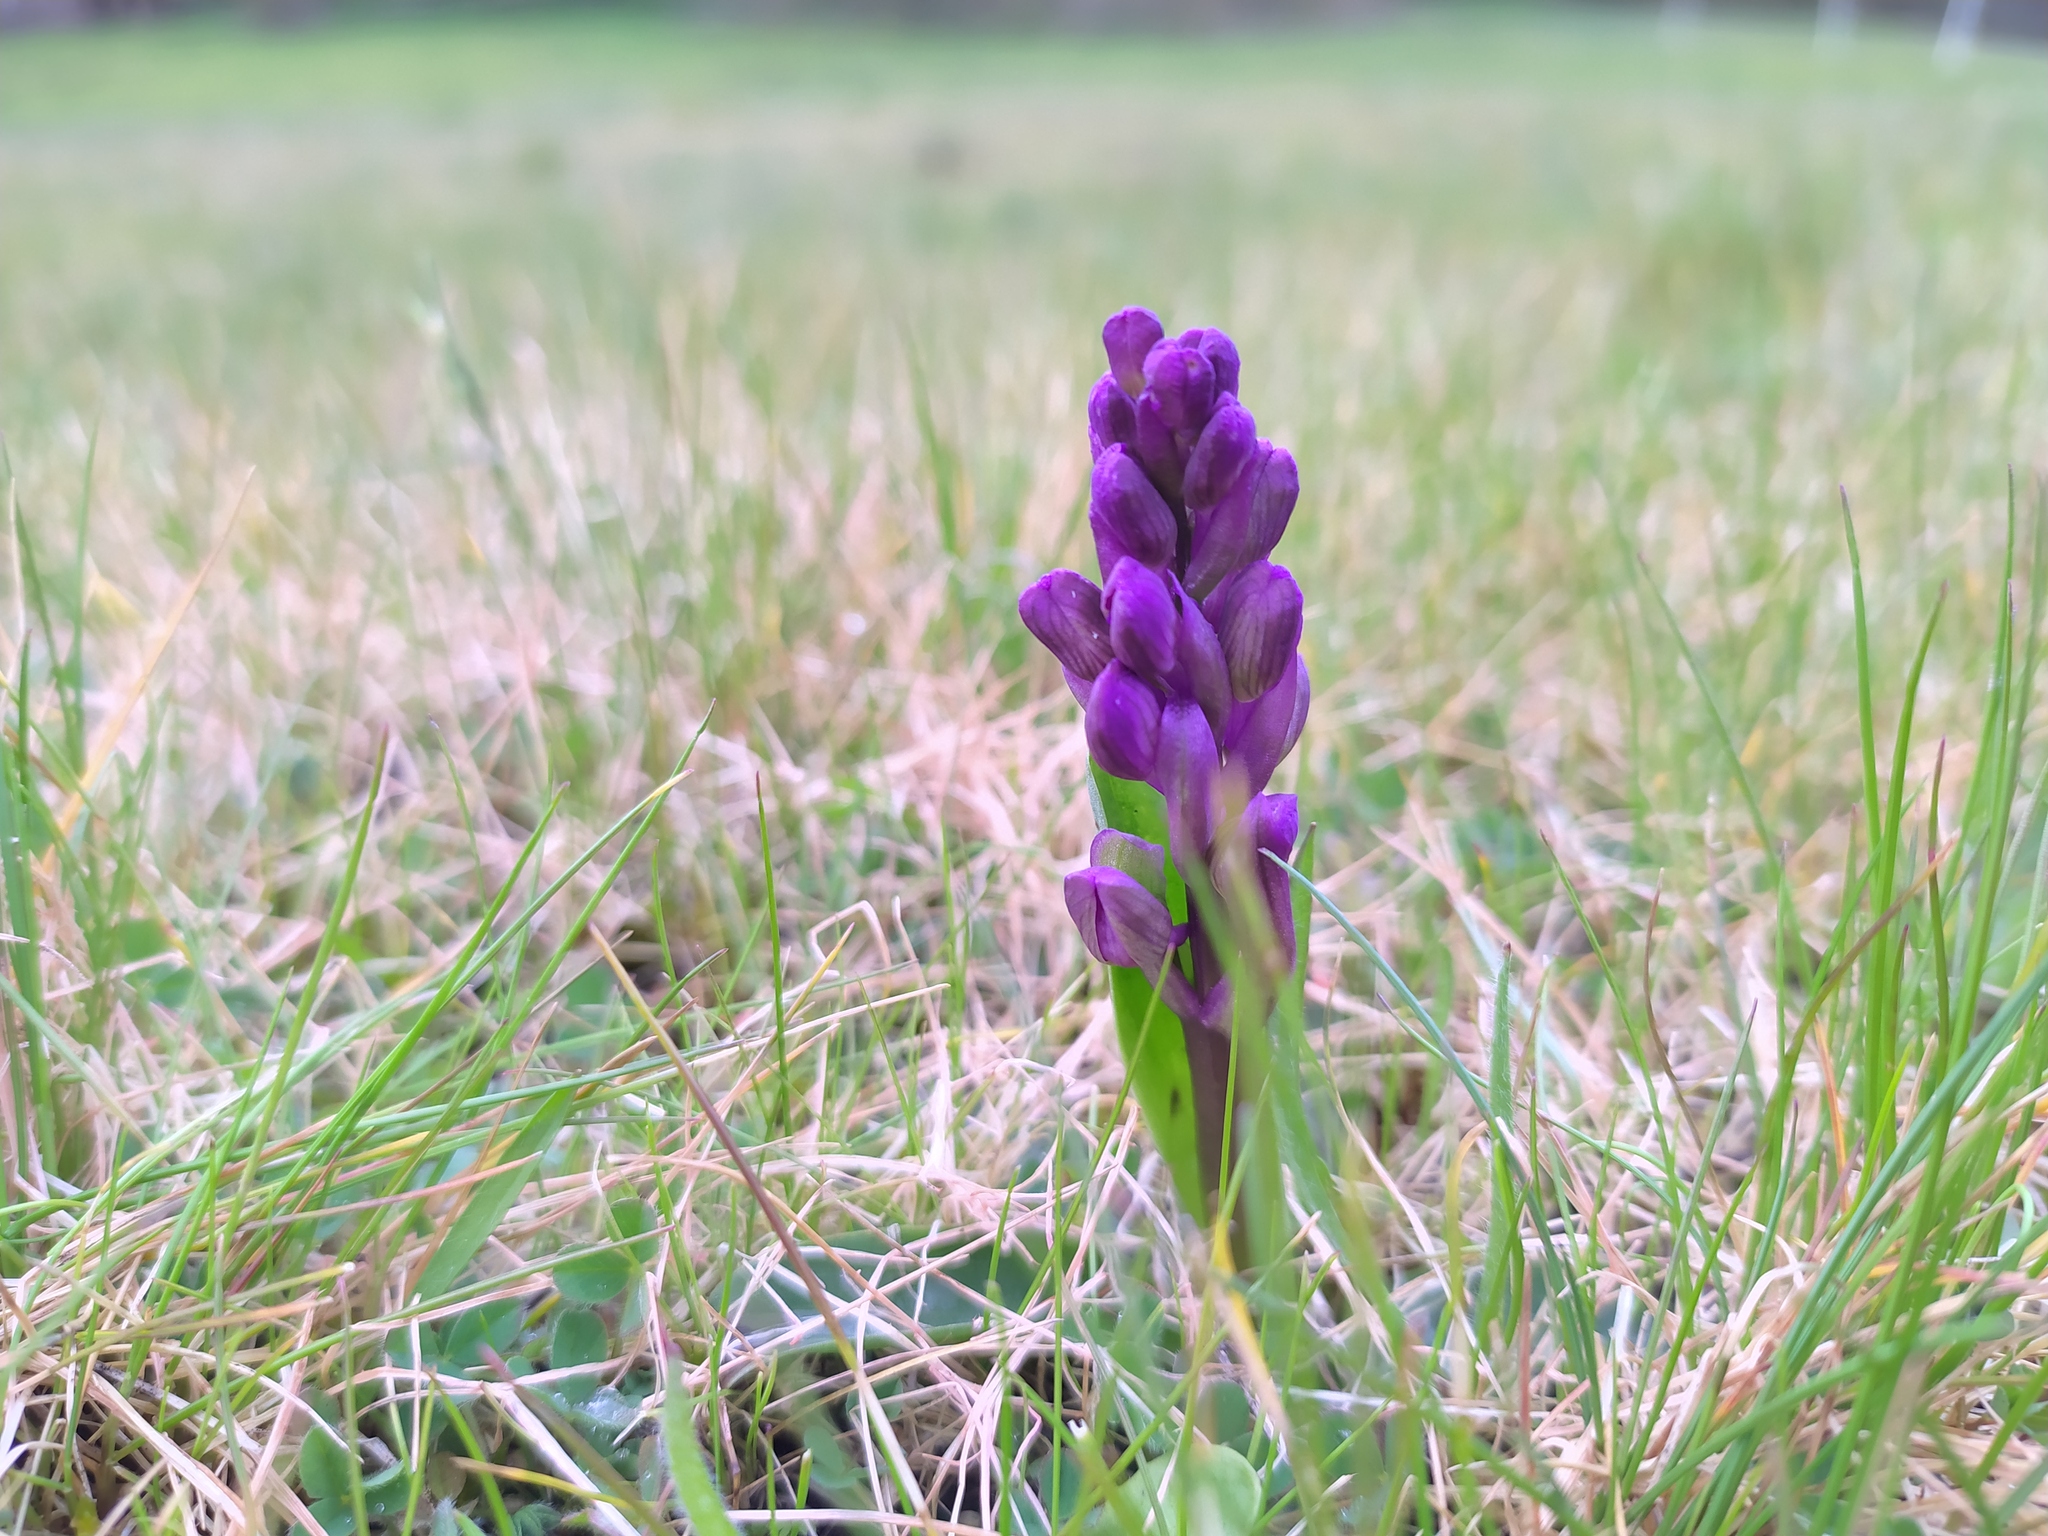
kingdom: Plantae
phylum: Tracheophyta
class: Liliopsida
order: Asparagales
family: Orchidaceae
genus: Anacamptis
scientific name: Anacamptis morio
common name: Green-winged orchid
